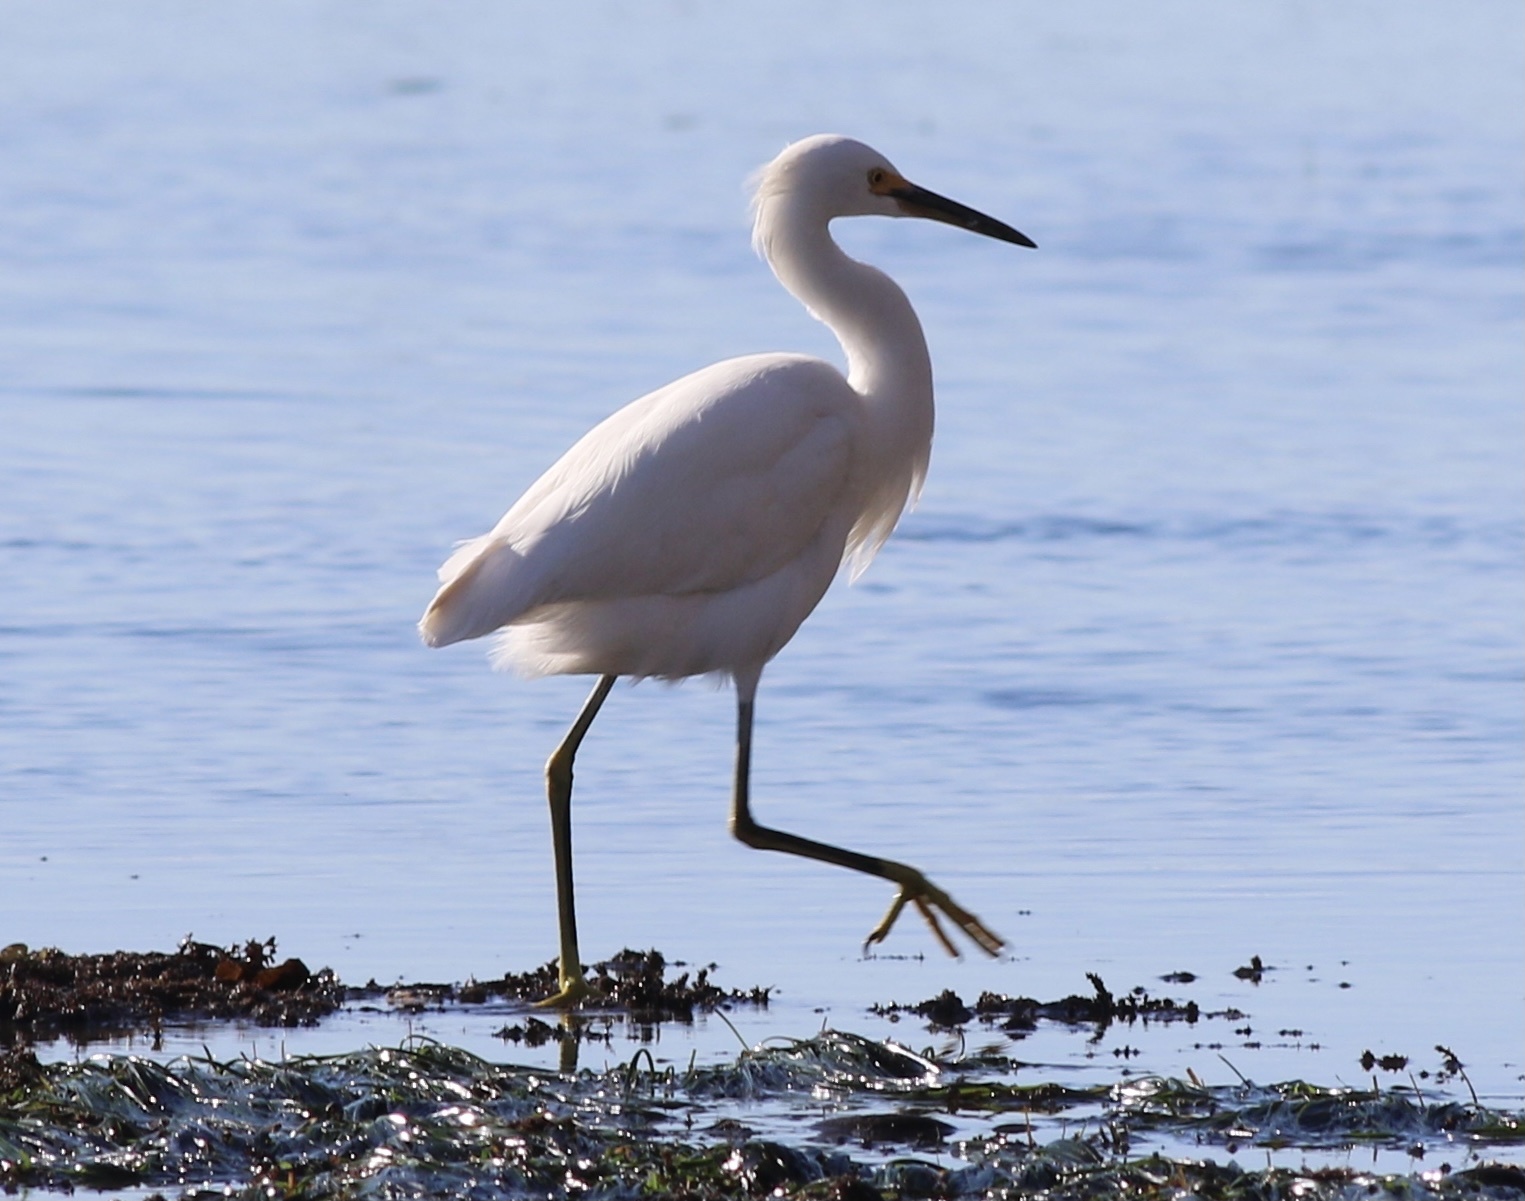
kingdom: Animalia
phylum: Chordata
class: Aves
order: Pelecaniformes
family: Ardeidae
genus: Egretta
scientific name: Egretta thula
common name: Snowy egret
